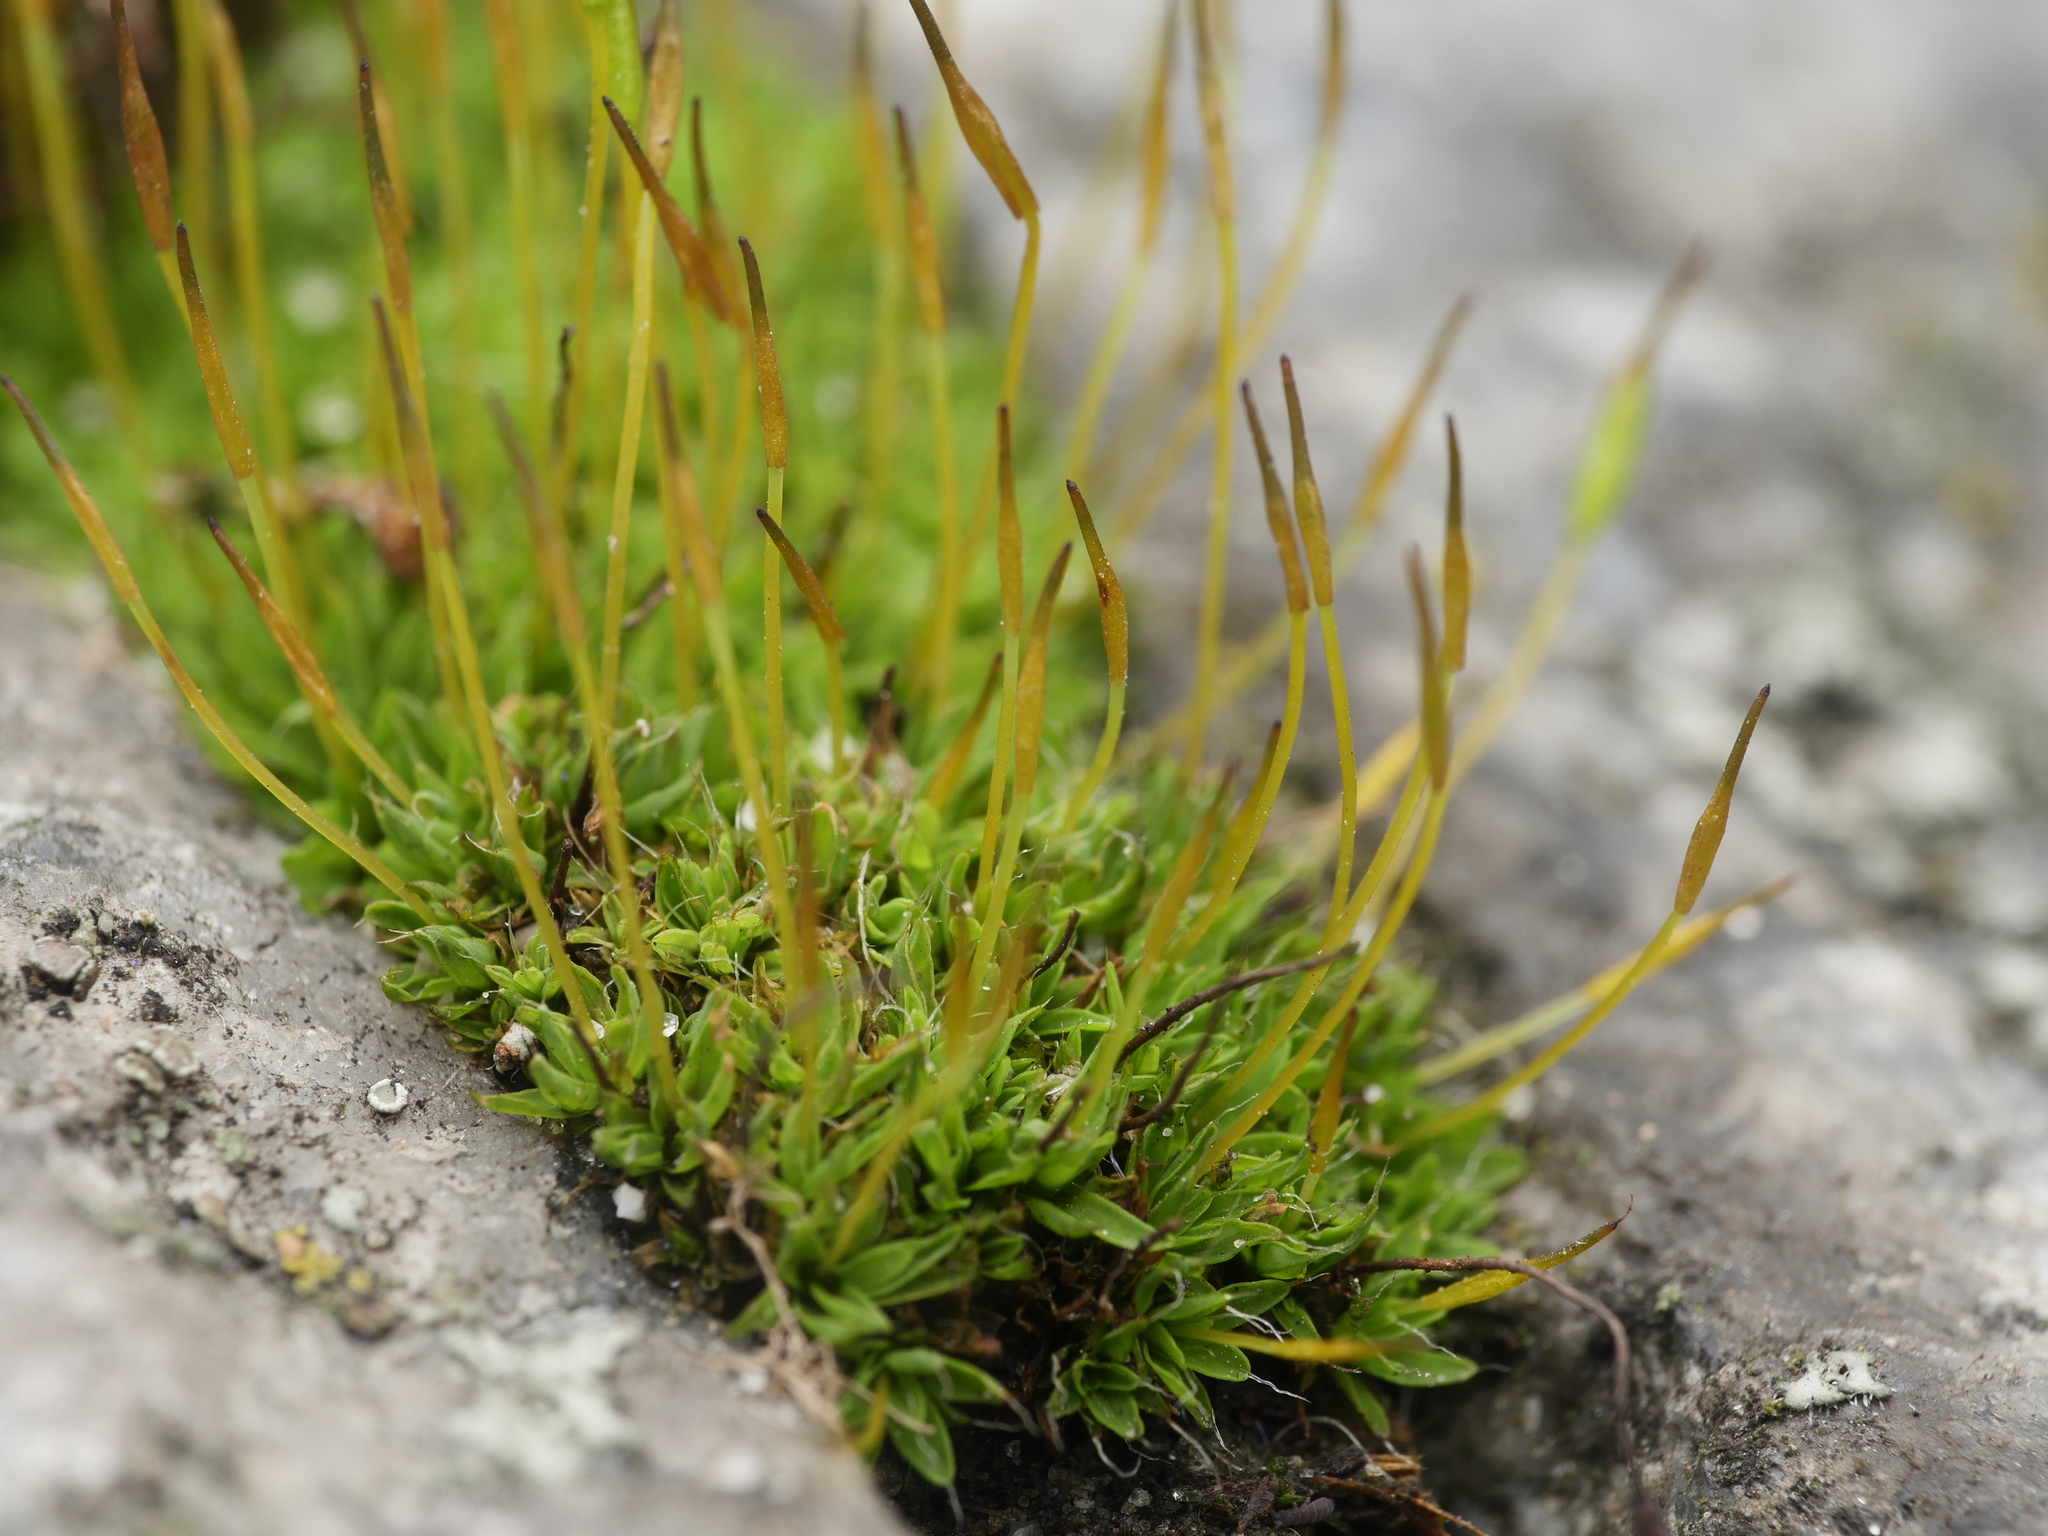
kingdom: Plantae
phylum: Bryophyta
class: Bryopsida
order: Pottiales
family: Pottiaceae
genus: Tortula
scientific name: Tortula muralis
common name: Wall screw-moss
